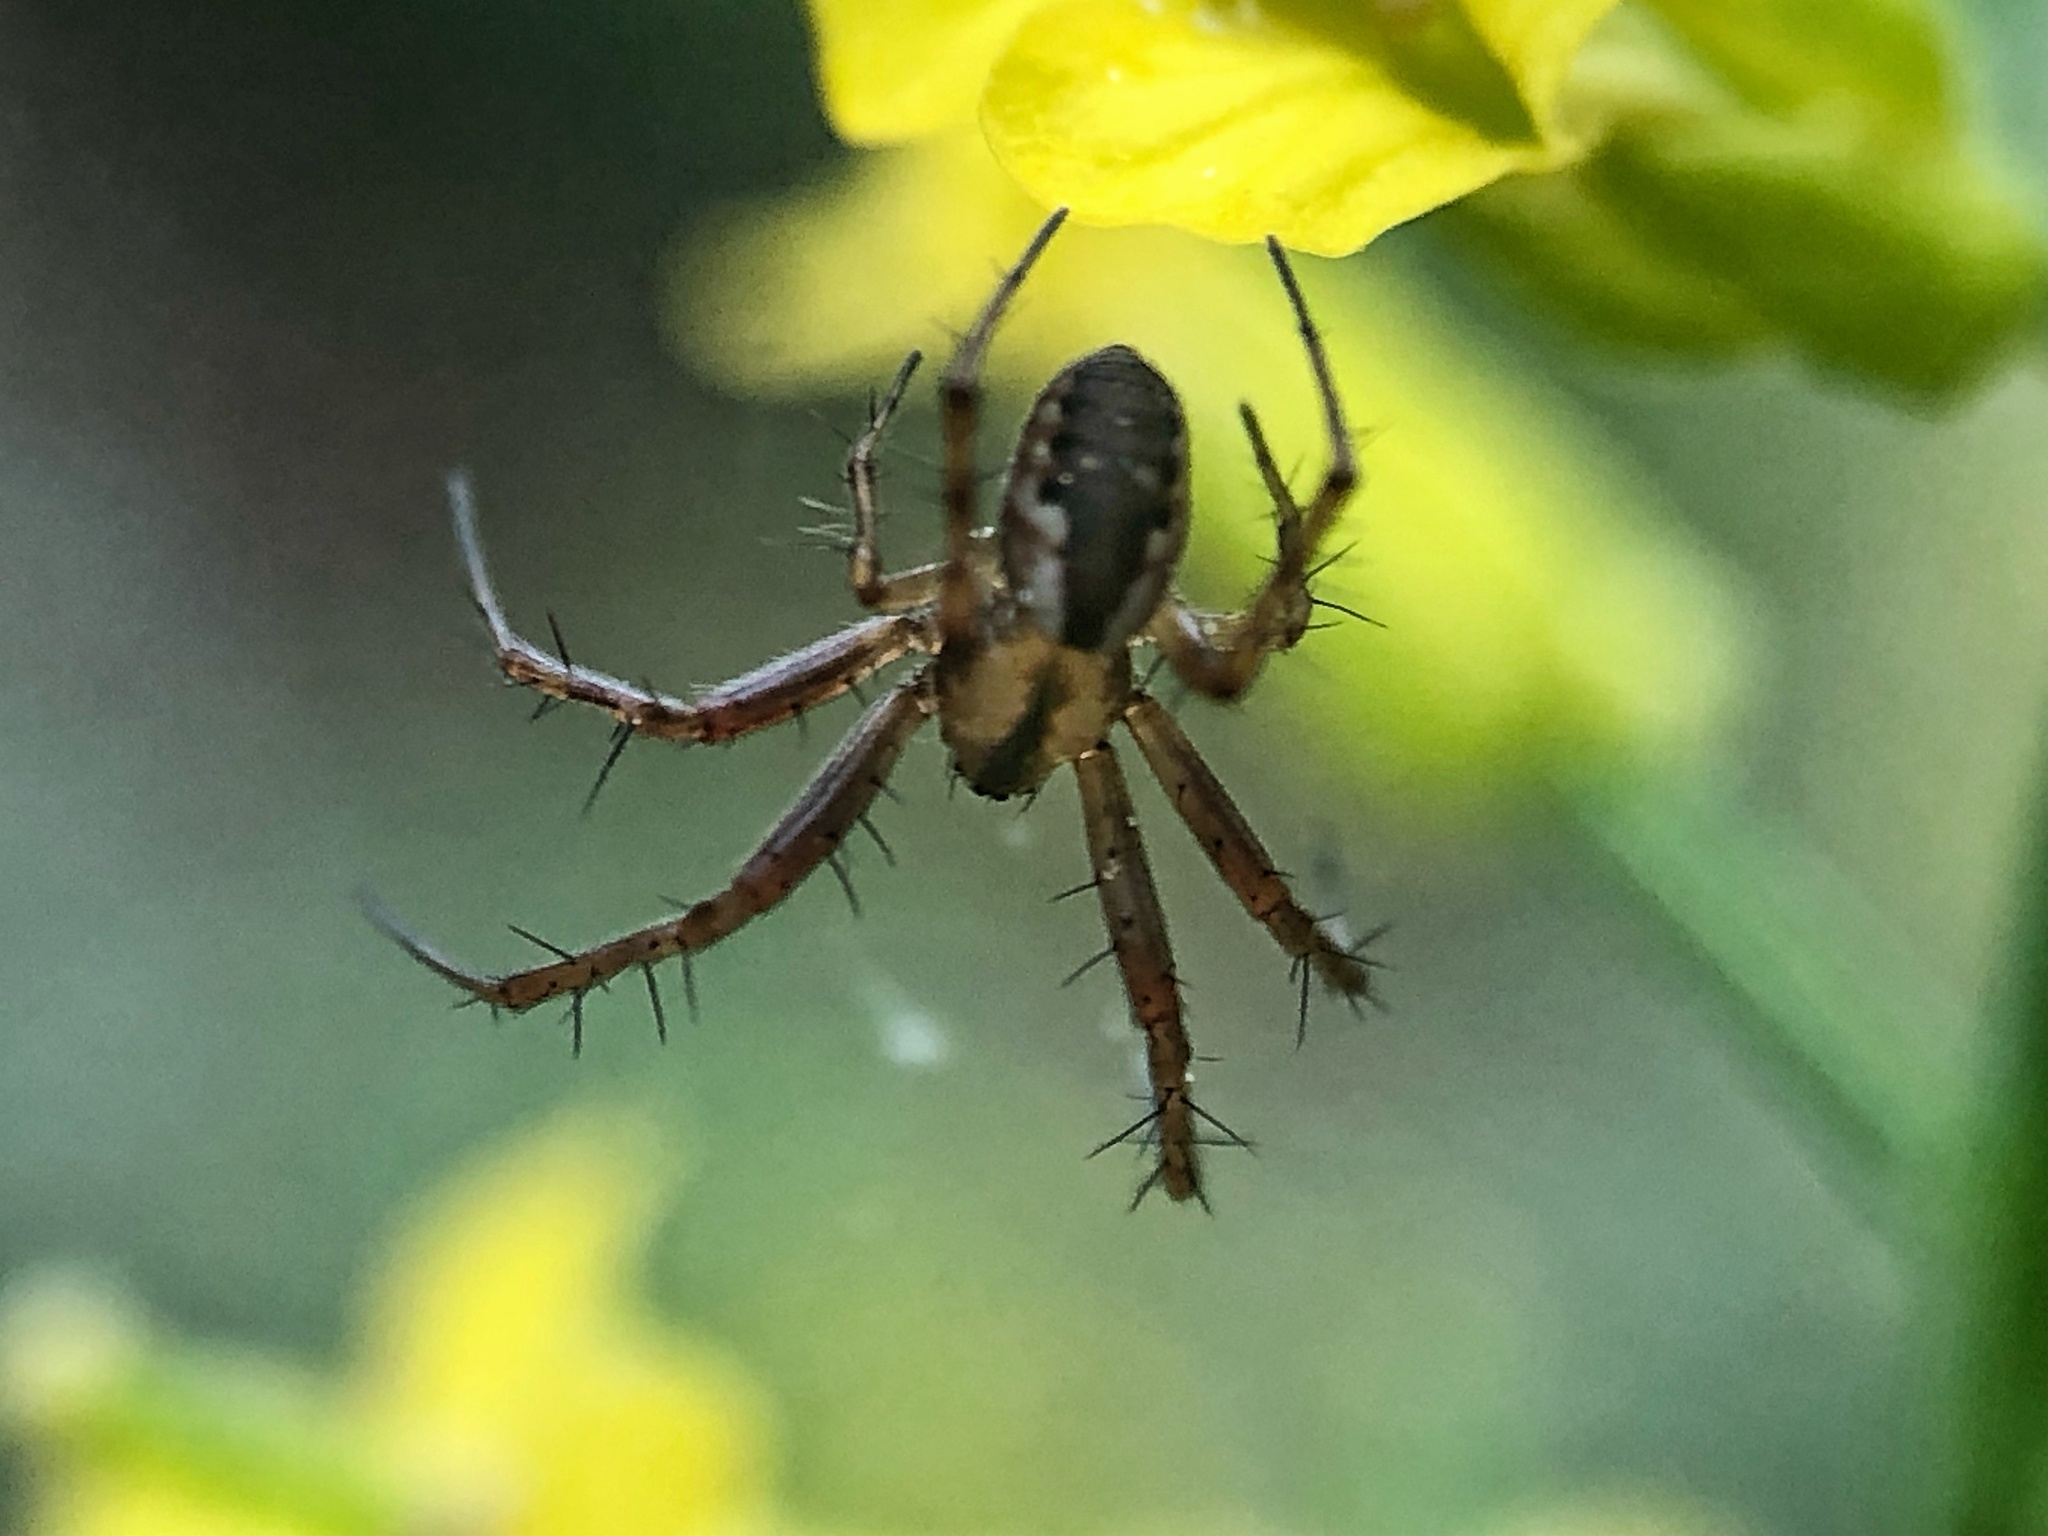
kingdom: Animalia
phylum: Arthropoda
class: Arachnida
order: Araneae
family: Araneidae
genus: Mangora
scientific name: Mangora placida
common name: Tuft-legged orbweaver
